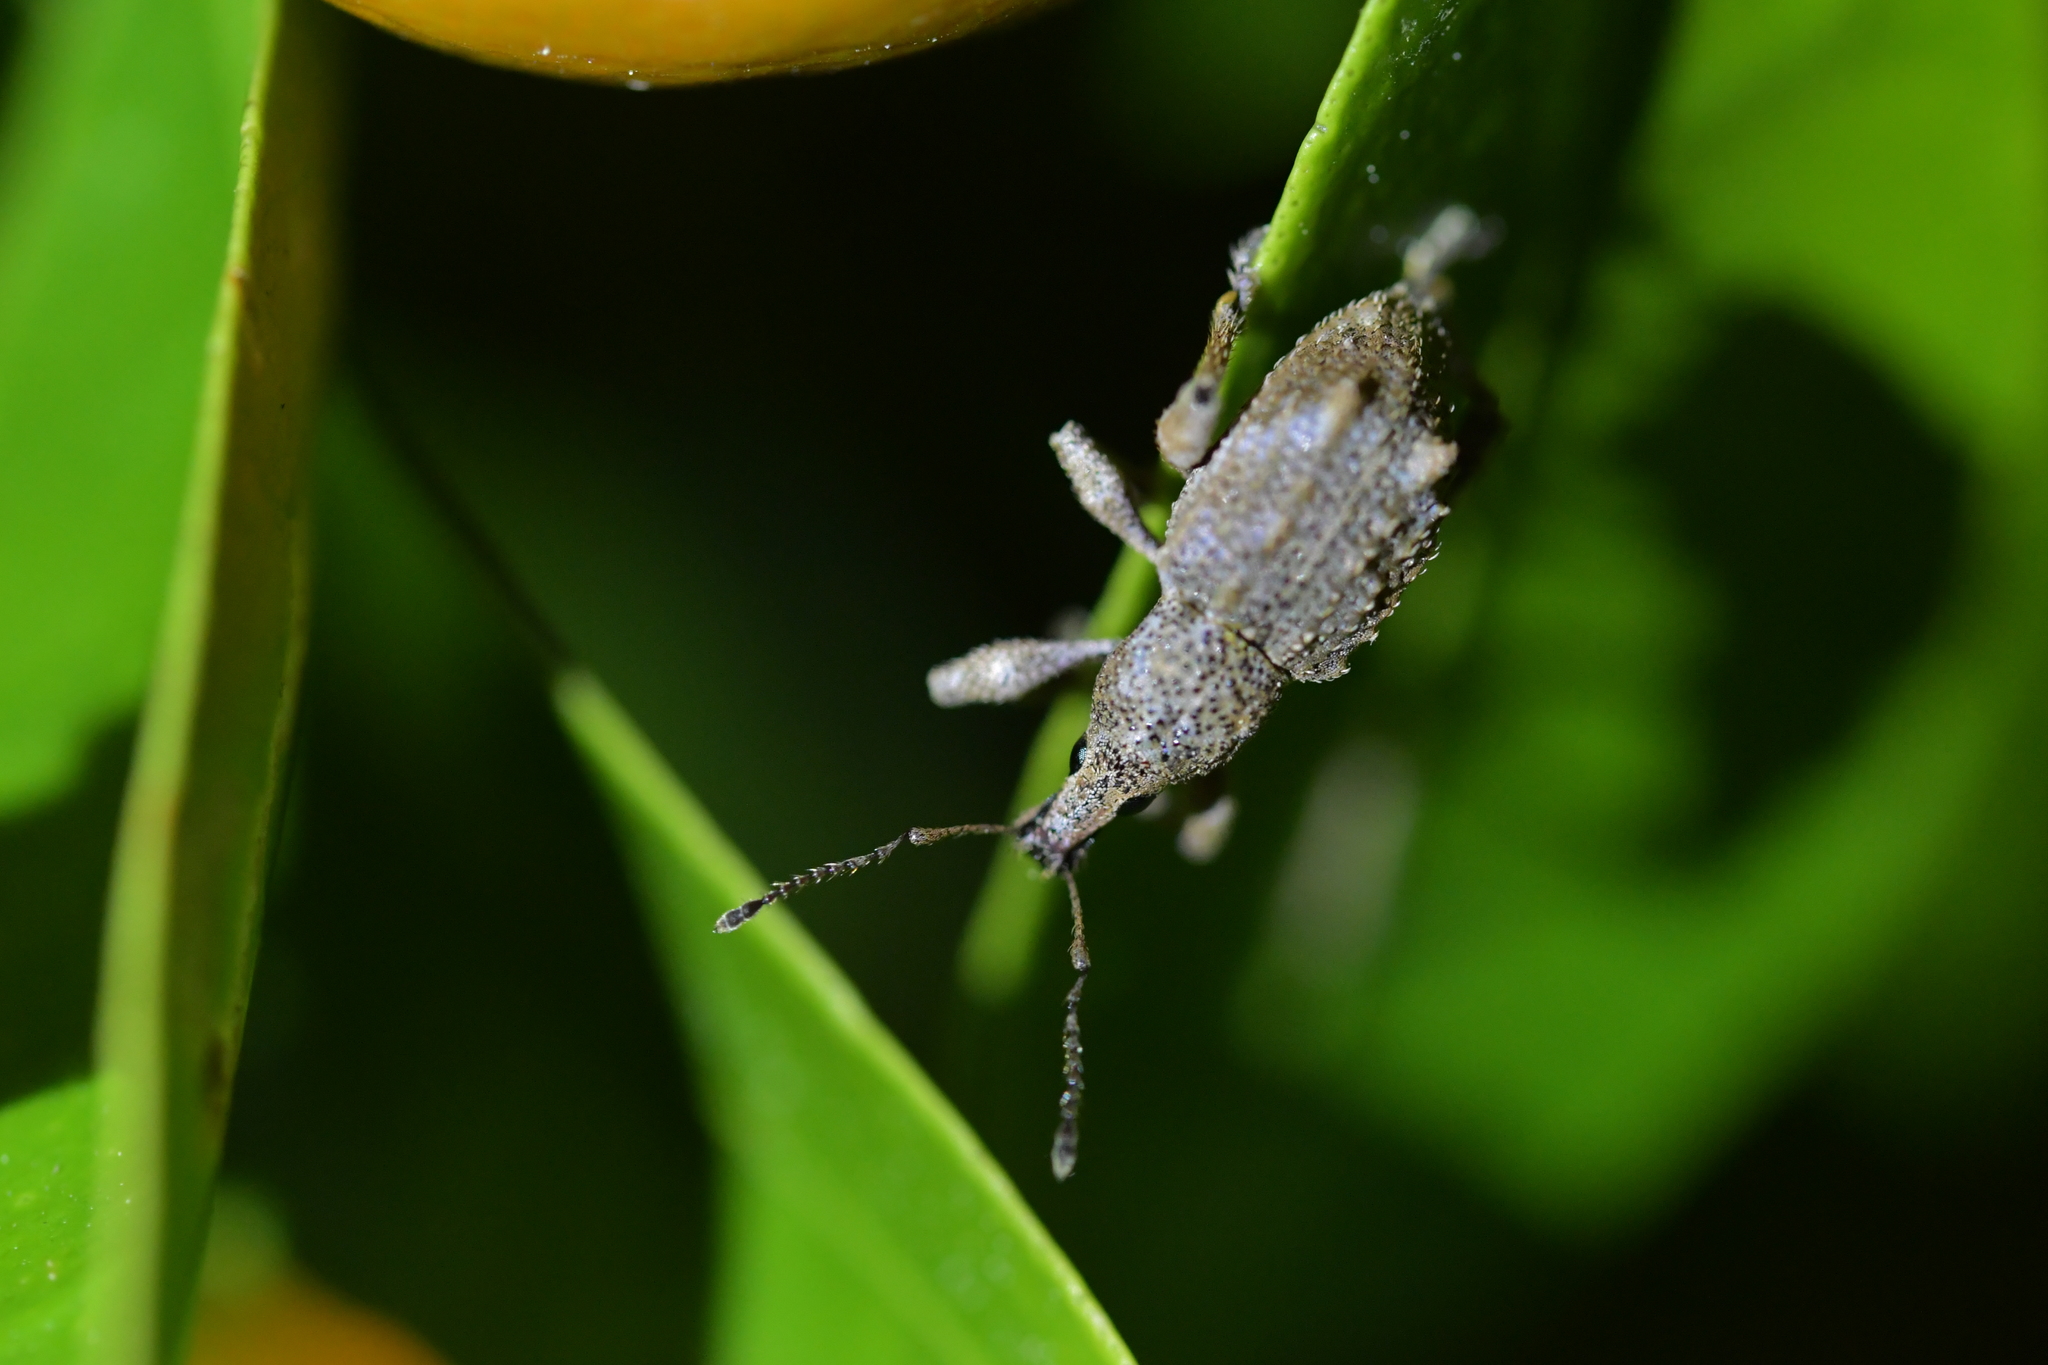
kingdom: Animalia
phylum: Arthropoda
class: Insecta
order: Coleoptera
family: Curculionidae
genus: Catoptes
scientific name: Catoptes binodis
